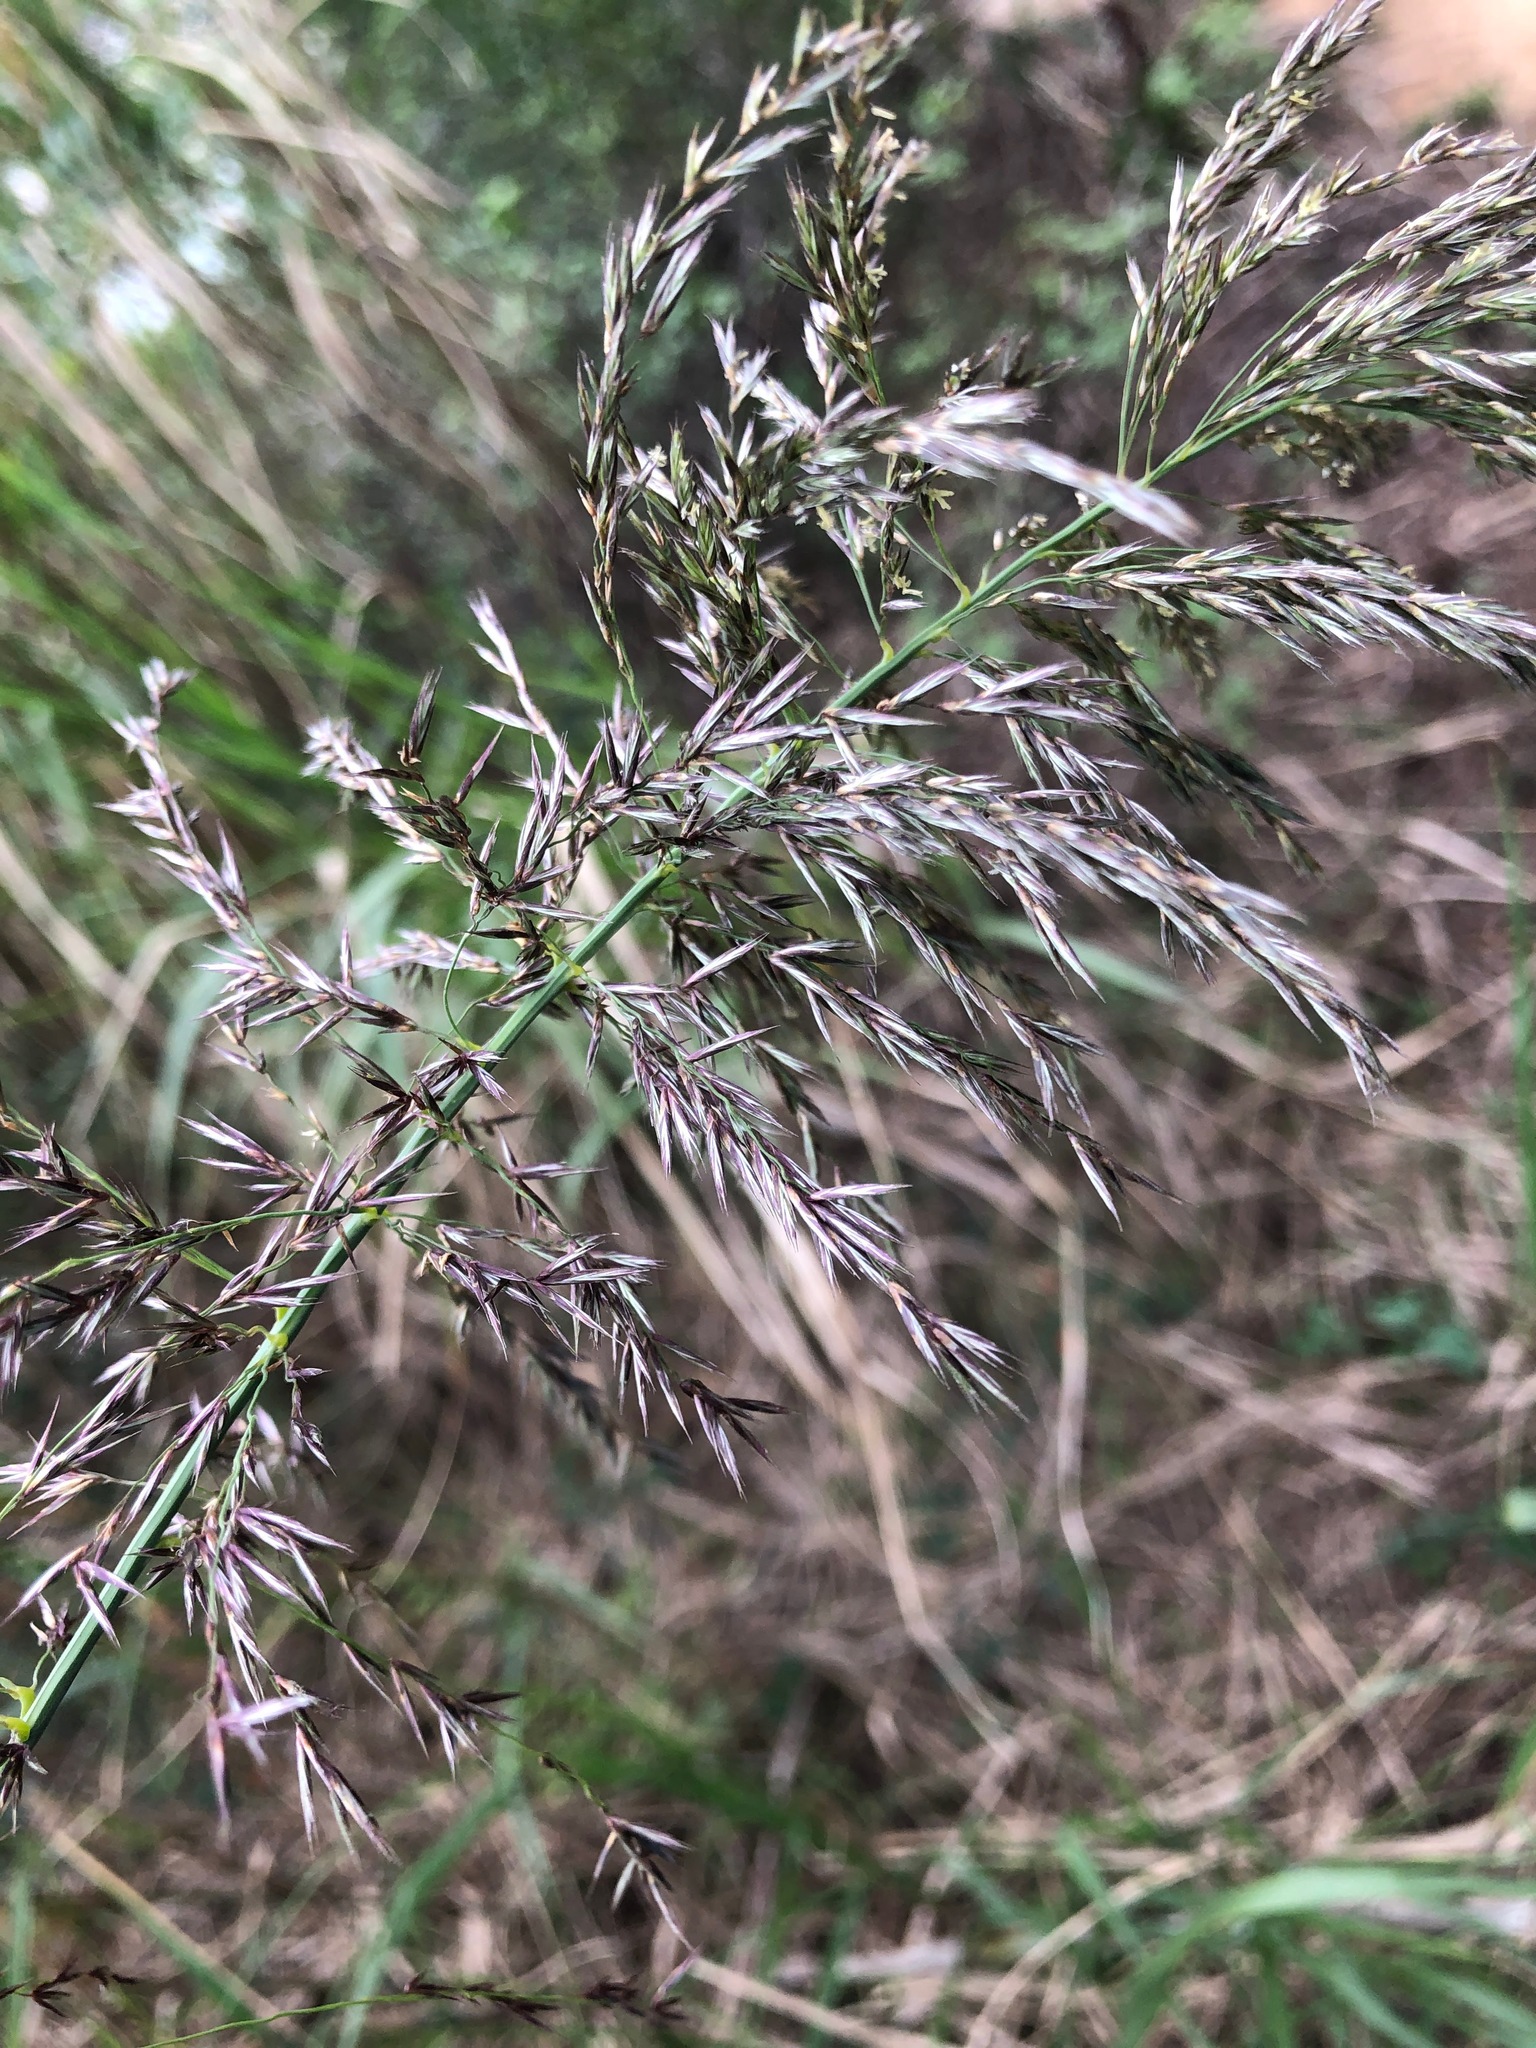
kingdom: Plantae
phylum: Tracheophyta
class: Liliopsida
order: Poales
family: Poaceae
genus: Neyraudia
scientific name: Neyraudia reynaudiana
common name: Silkreed
